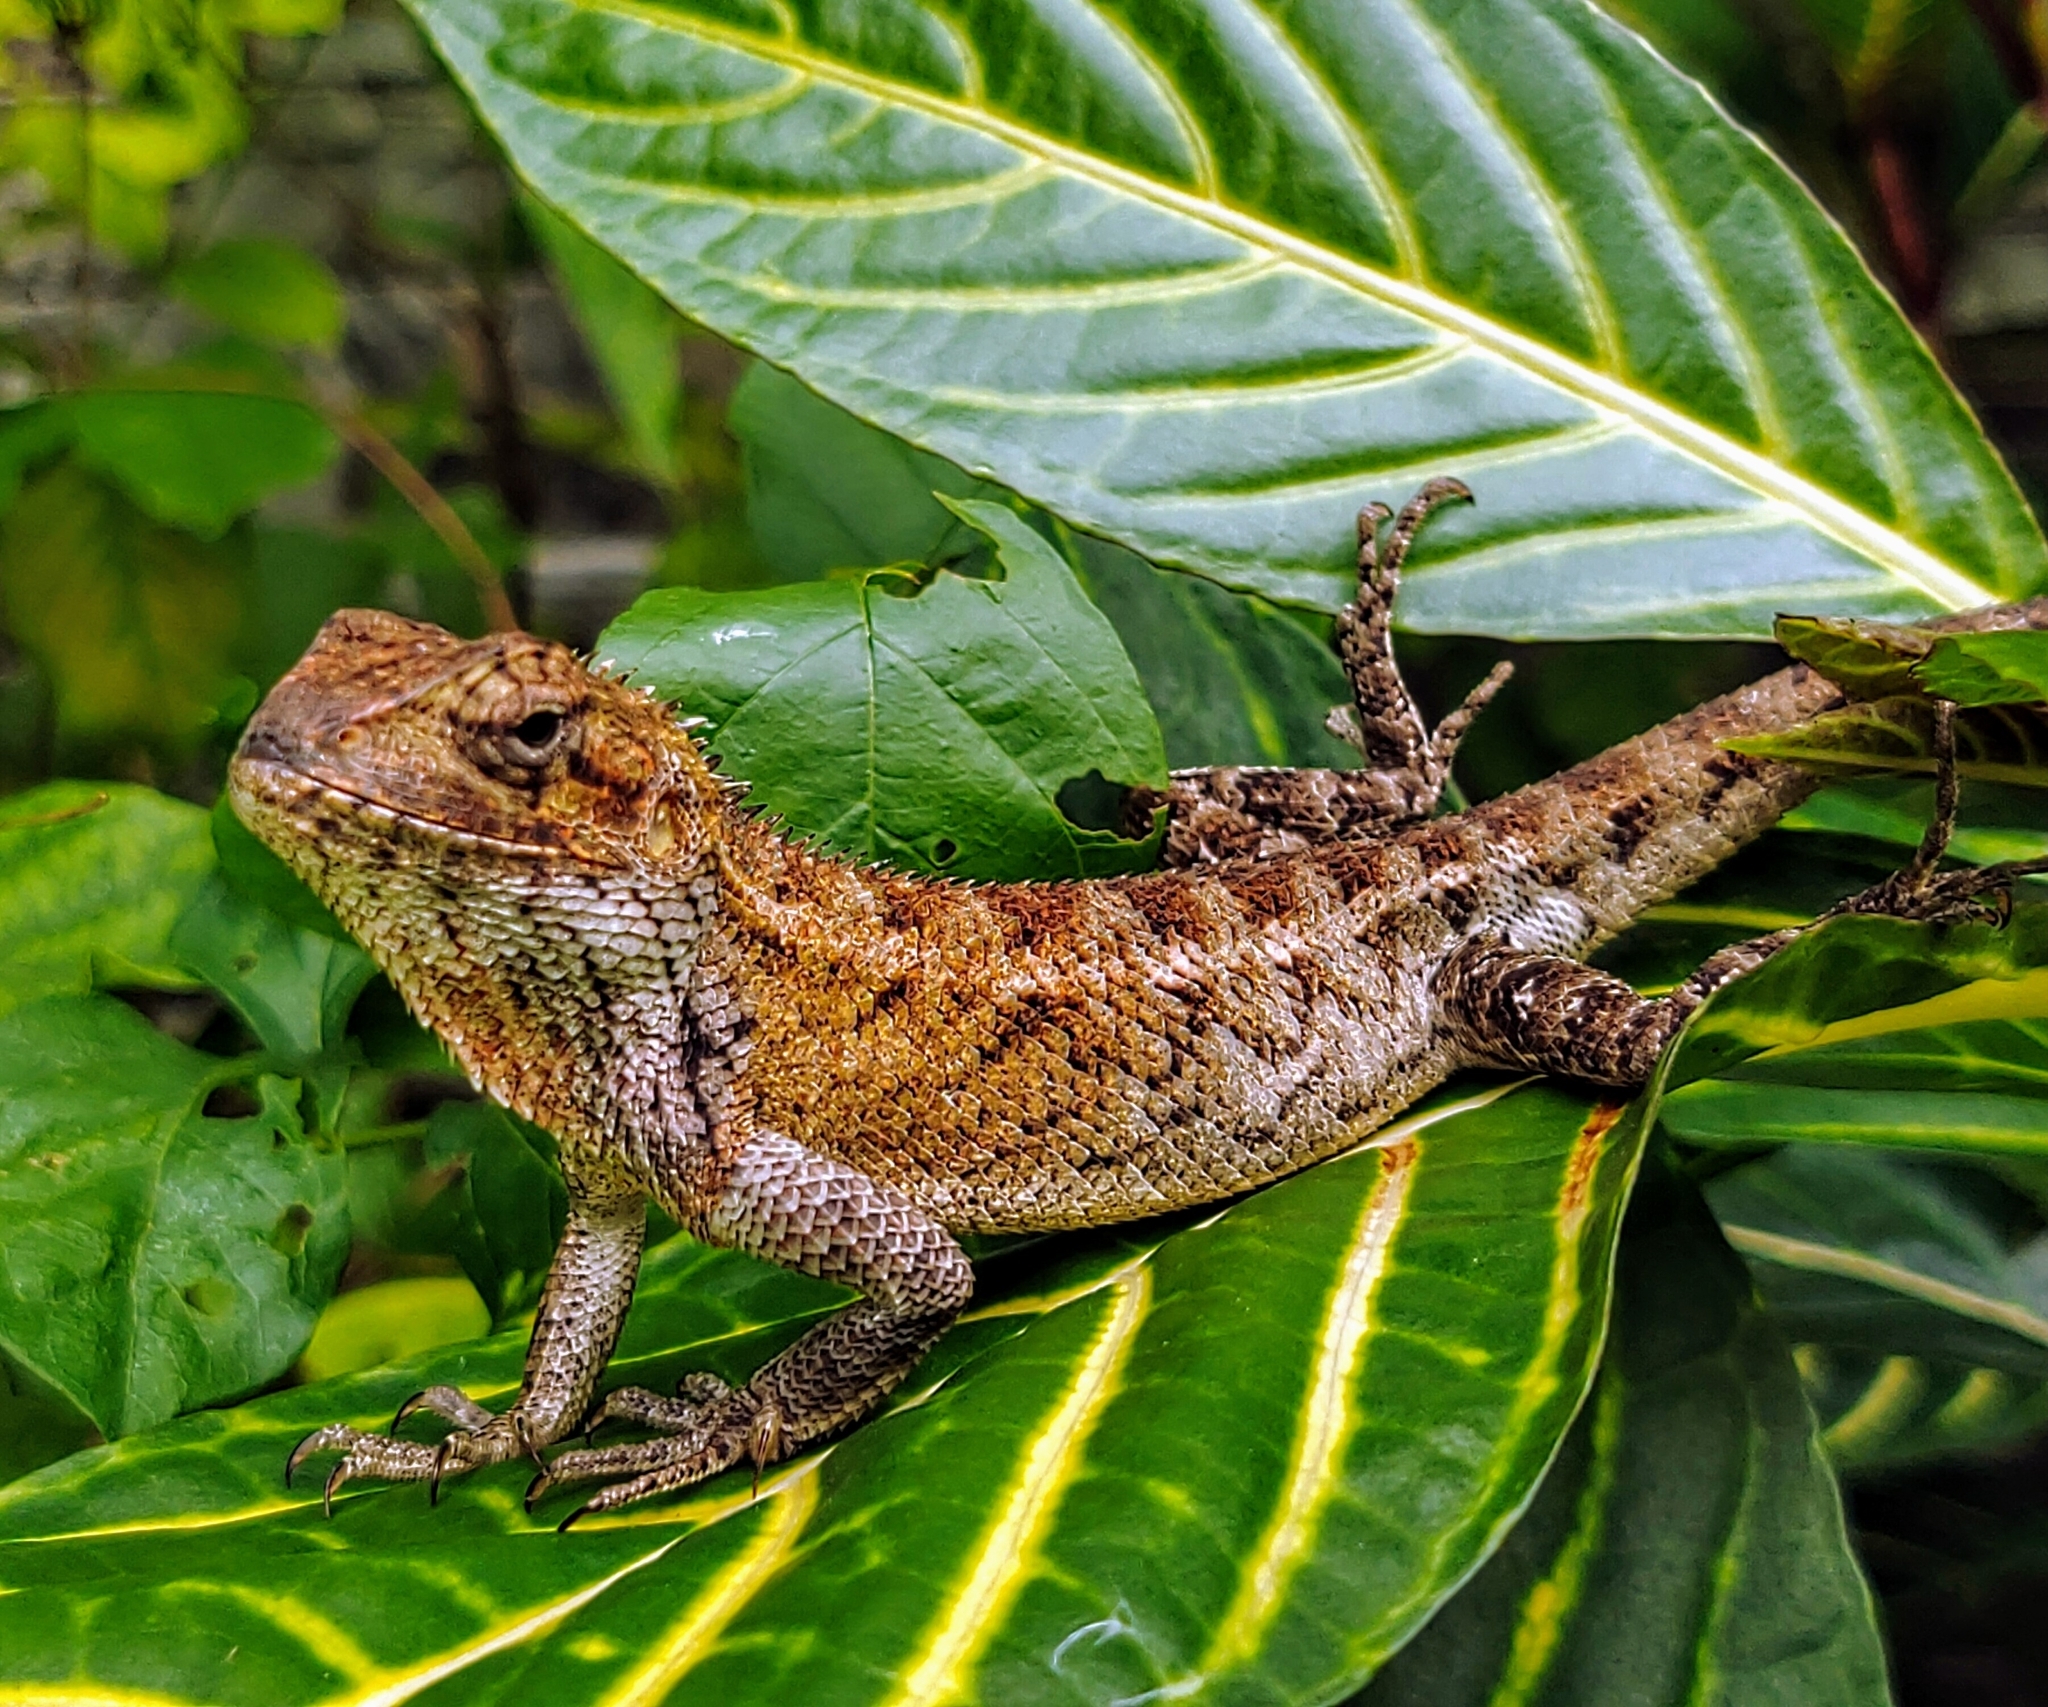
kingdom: Animalia
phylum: Chordata
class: Squamata
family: Agamidae
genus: Calotes
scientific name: Calotes versicolor
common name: Oriental garden lizard
